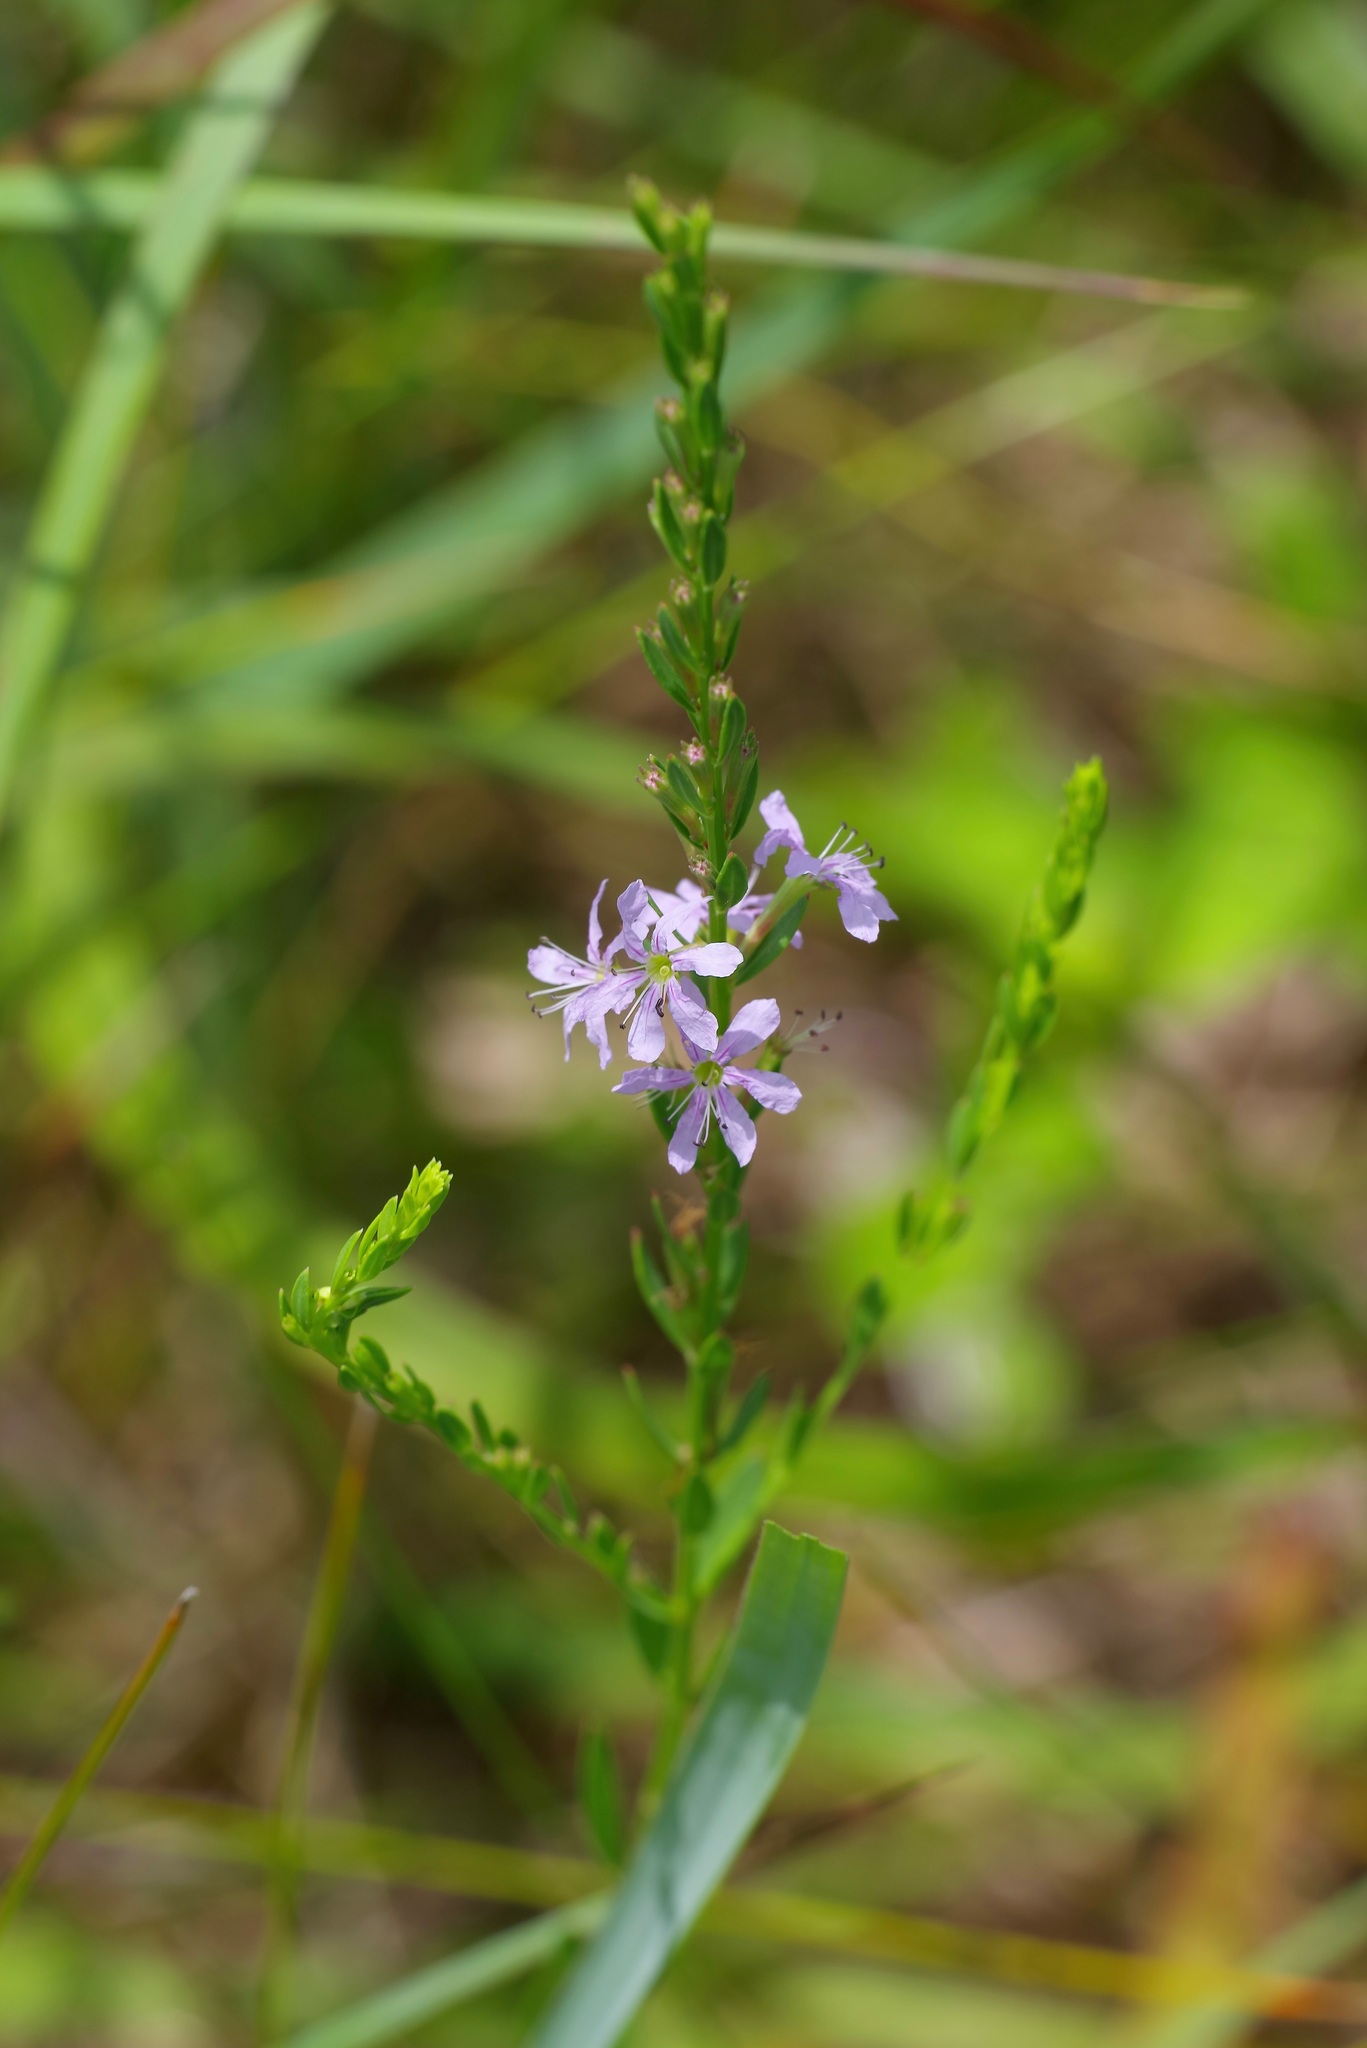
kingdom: Plantae
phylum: Tracheophyta
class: Magnoliopsida
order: Myrtales
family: Lythraceae
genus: Lythrum
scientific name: Lythrum alatum
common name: Winged loosestrife
